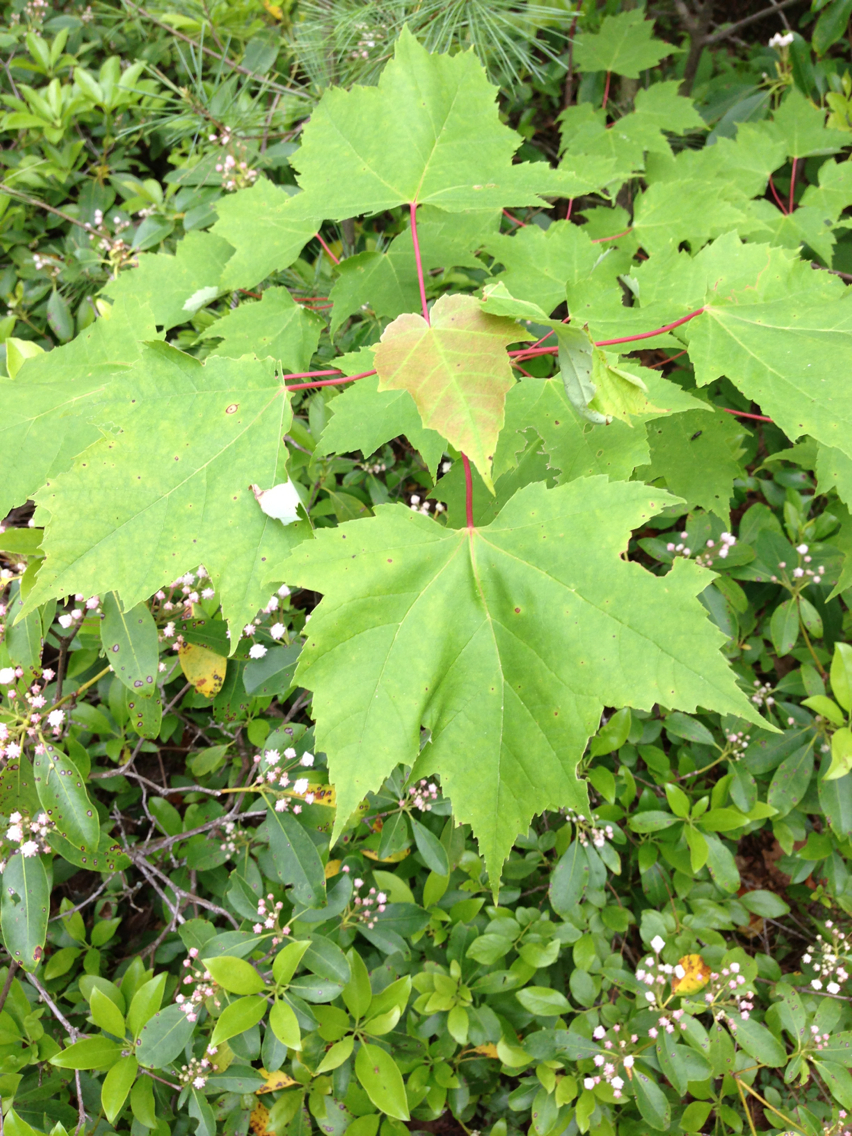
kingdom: Plantae
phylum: Tracheophyta
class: Magnoliopsida
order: Sapindales
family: Sapindaceae
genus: Acer
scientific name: Acer rubrum
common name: Red maple
